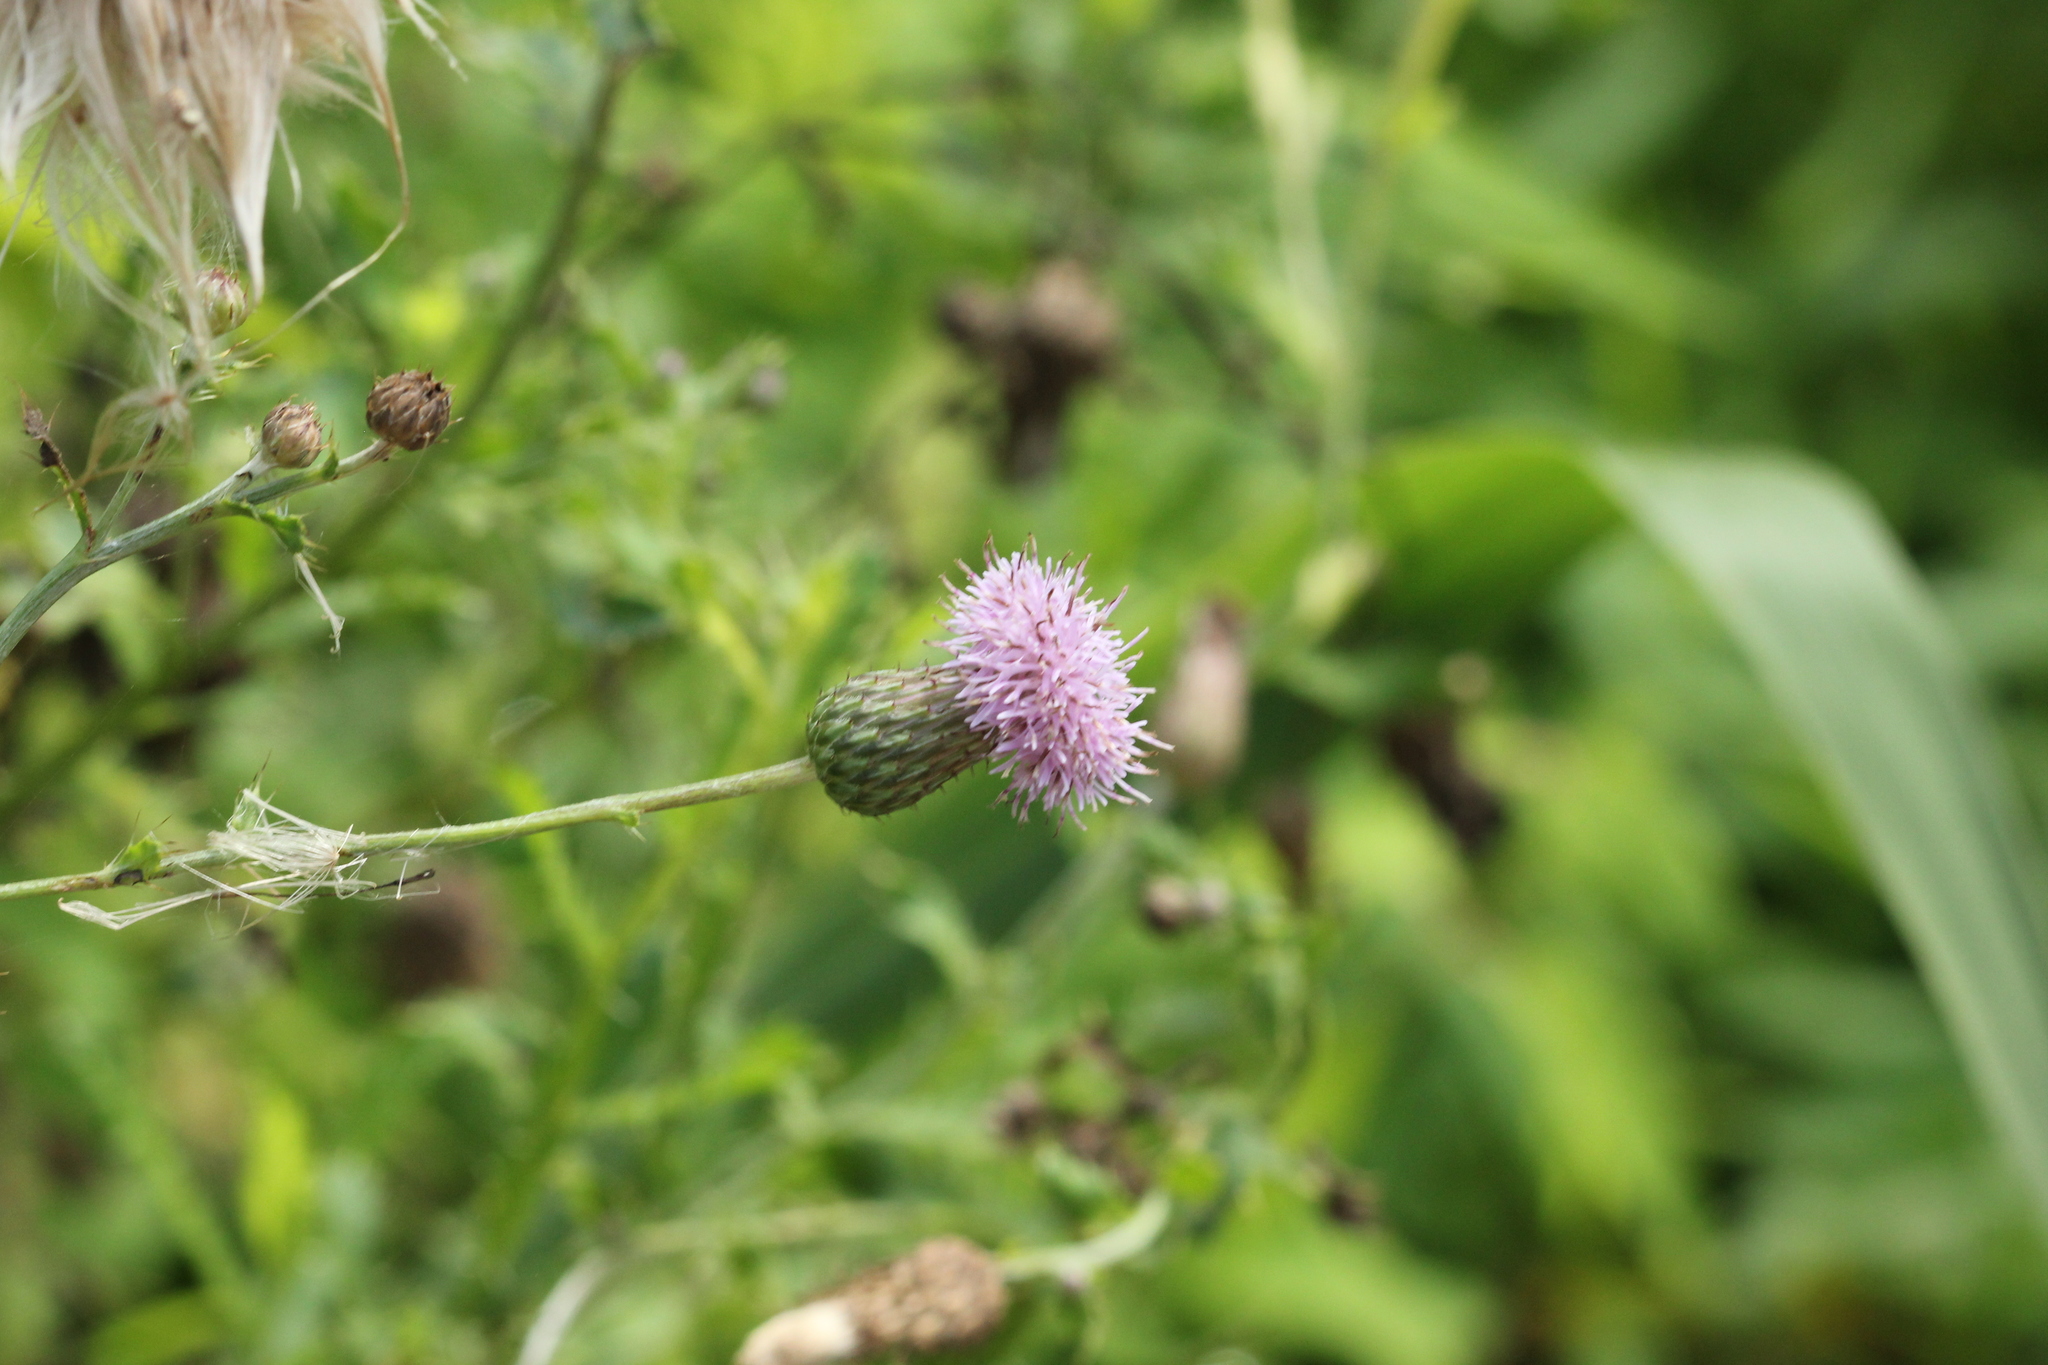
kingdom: Plantae
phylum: Tracheophyta
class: Magnoliopsida
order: Asterales
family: Asteraceae
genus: Cirsium
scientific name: Cirsium arvense
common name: Creeping thistle
